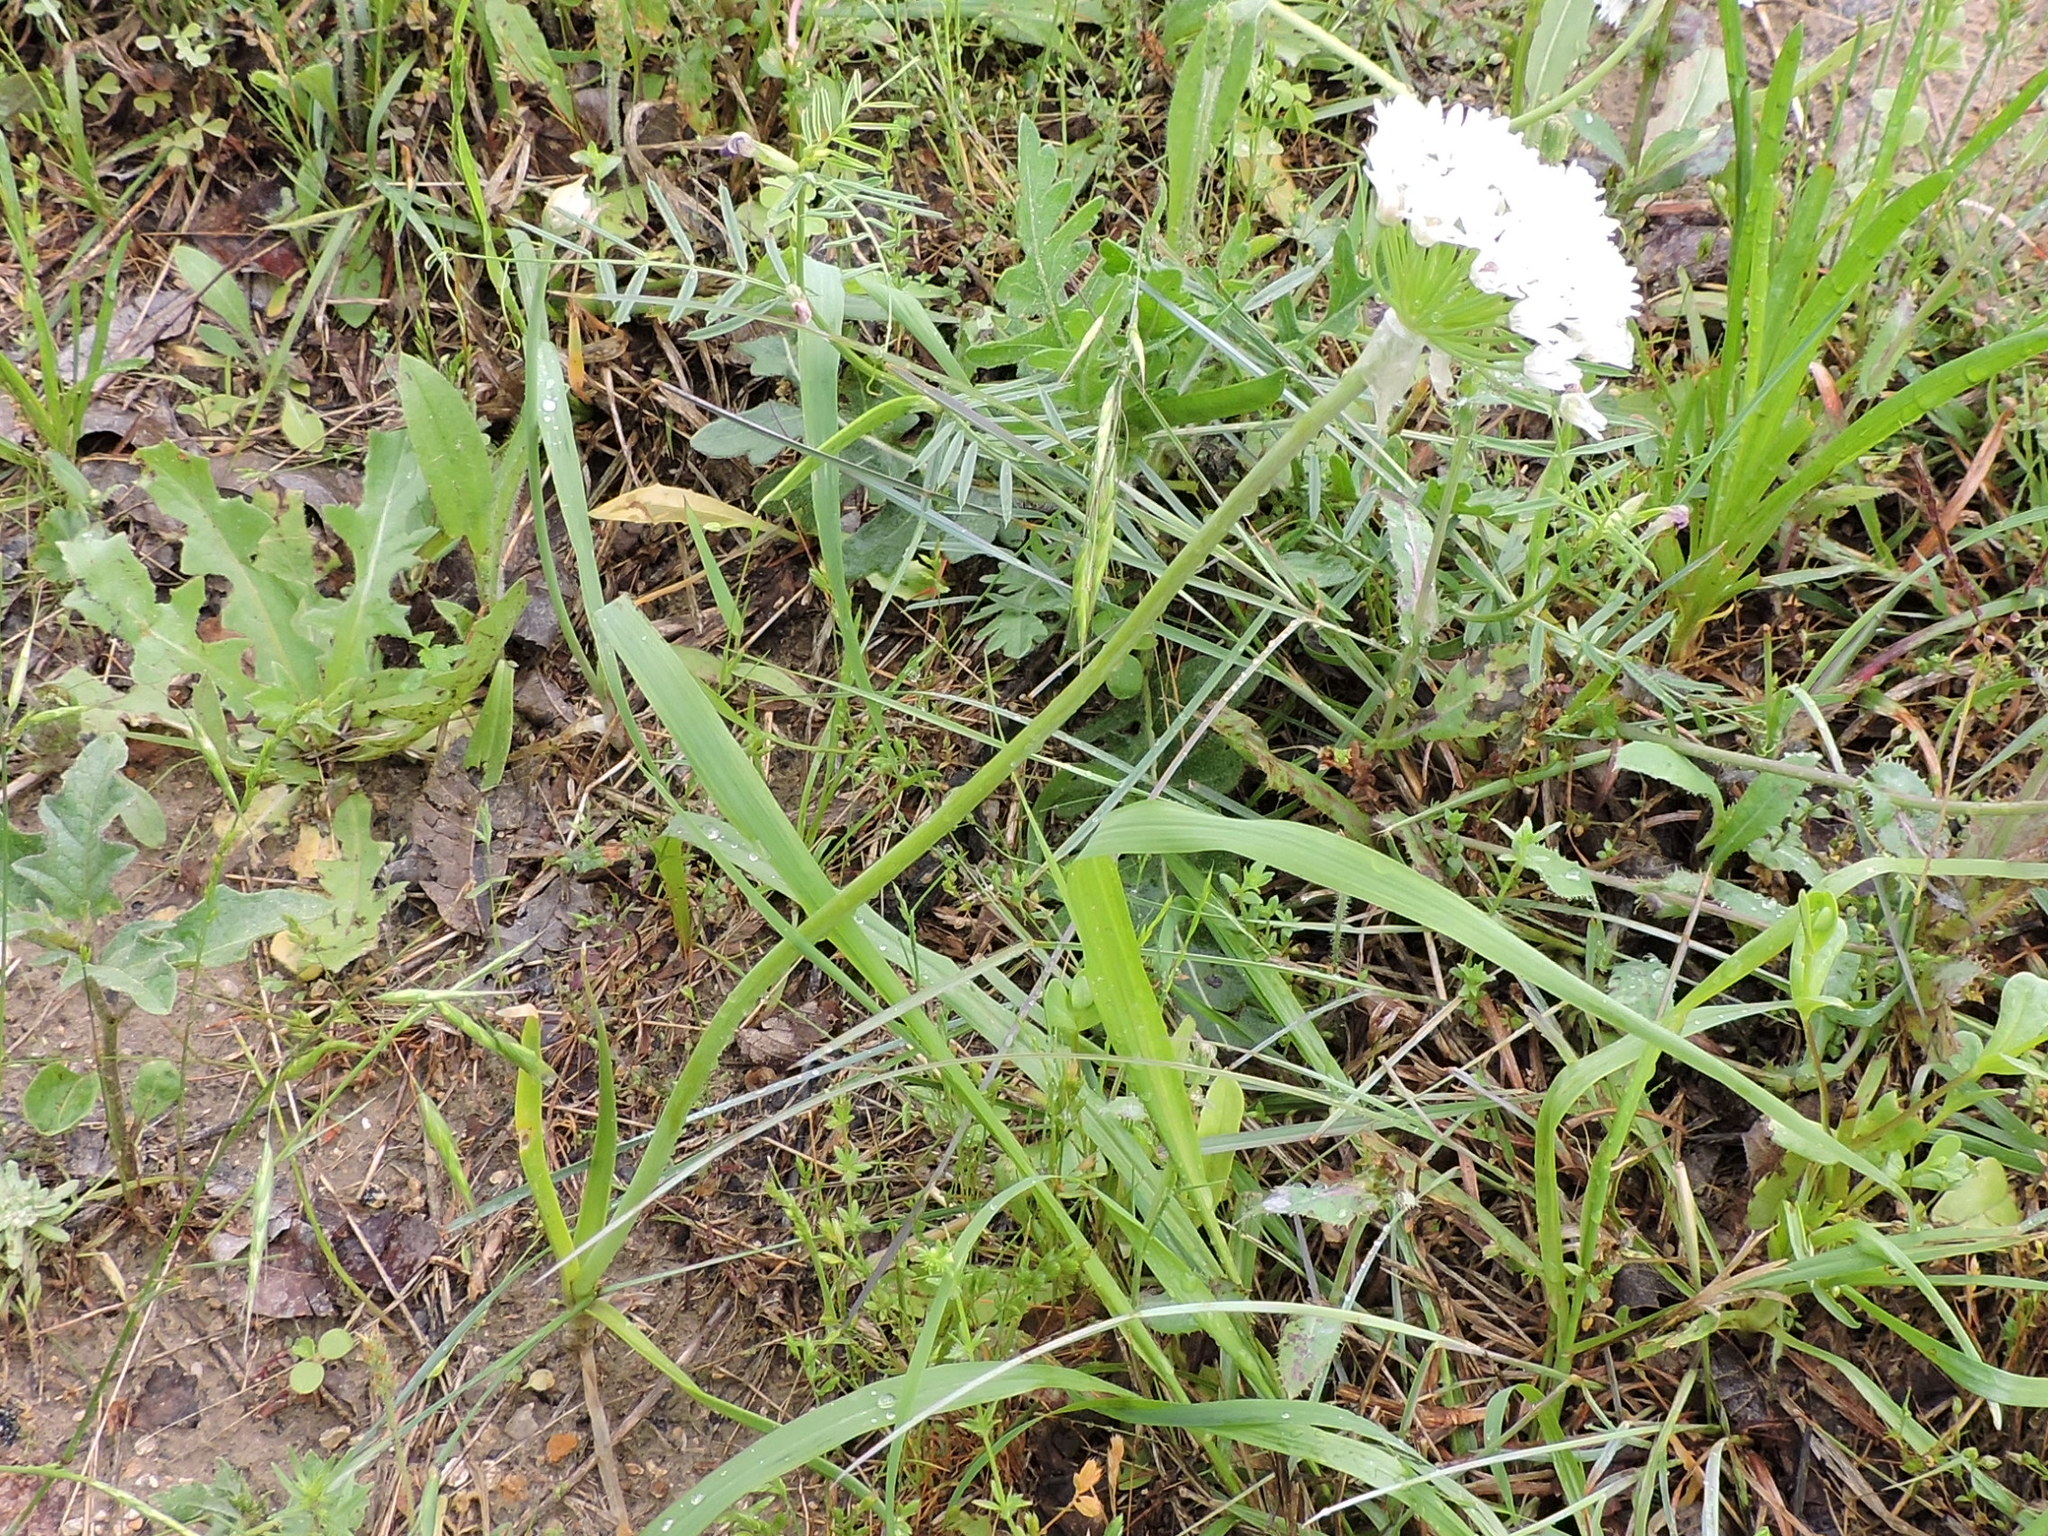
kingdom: Plantae
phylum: Tracheophyta
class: Liliopsida
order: Asparagales
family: Amaryllidaceae
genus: Allium
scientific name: Allium fraseri
